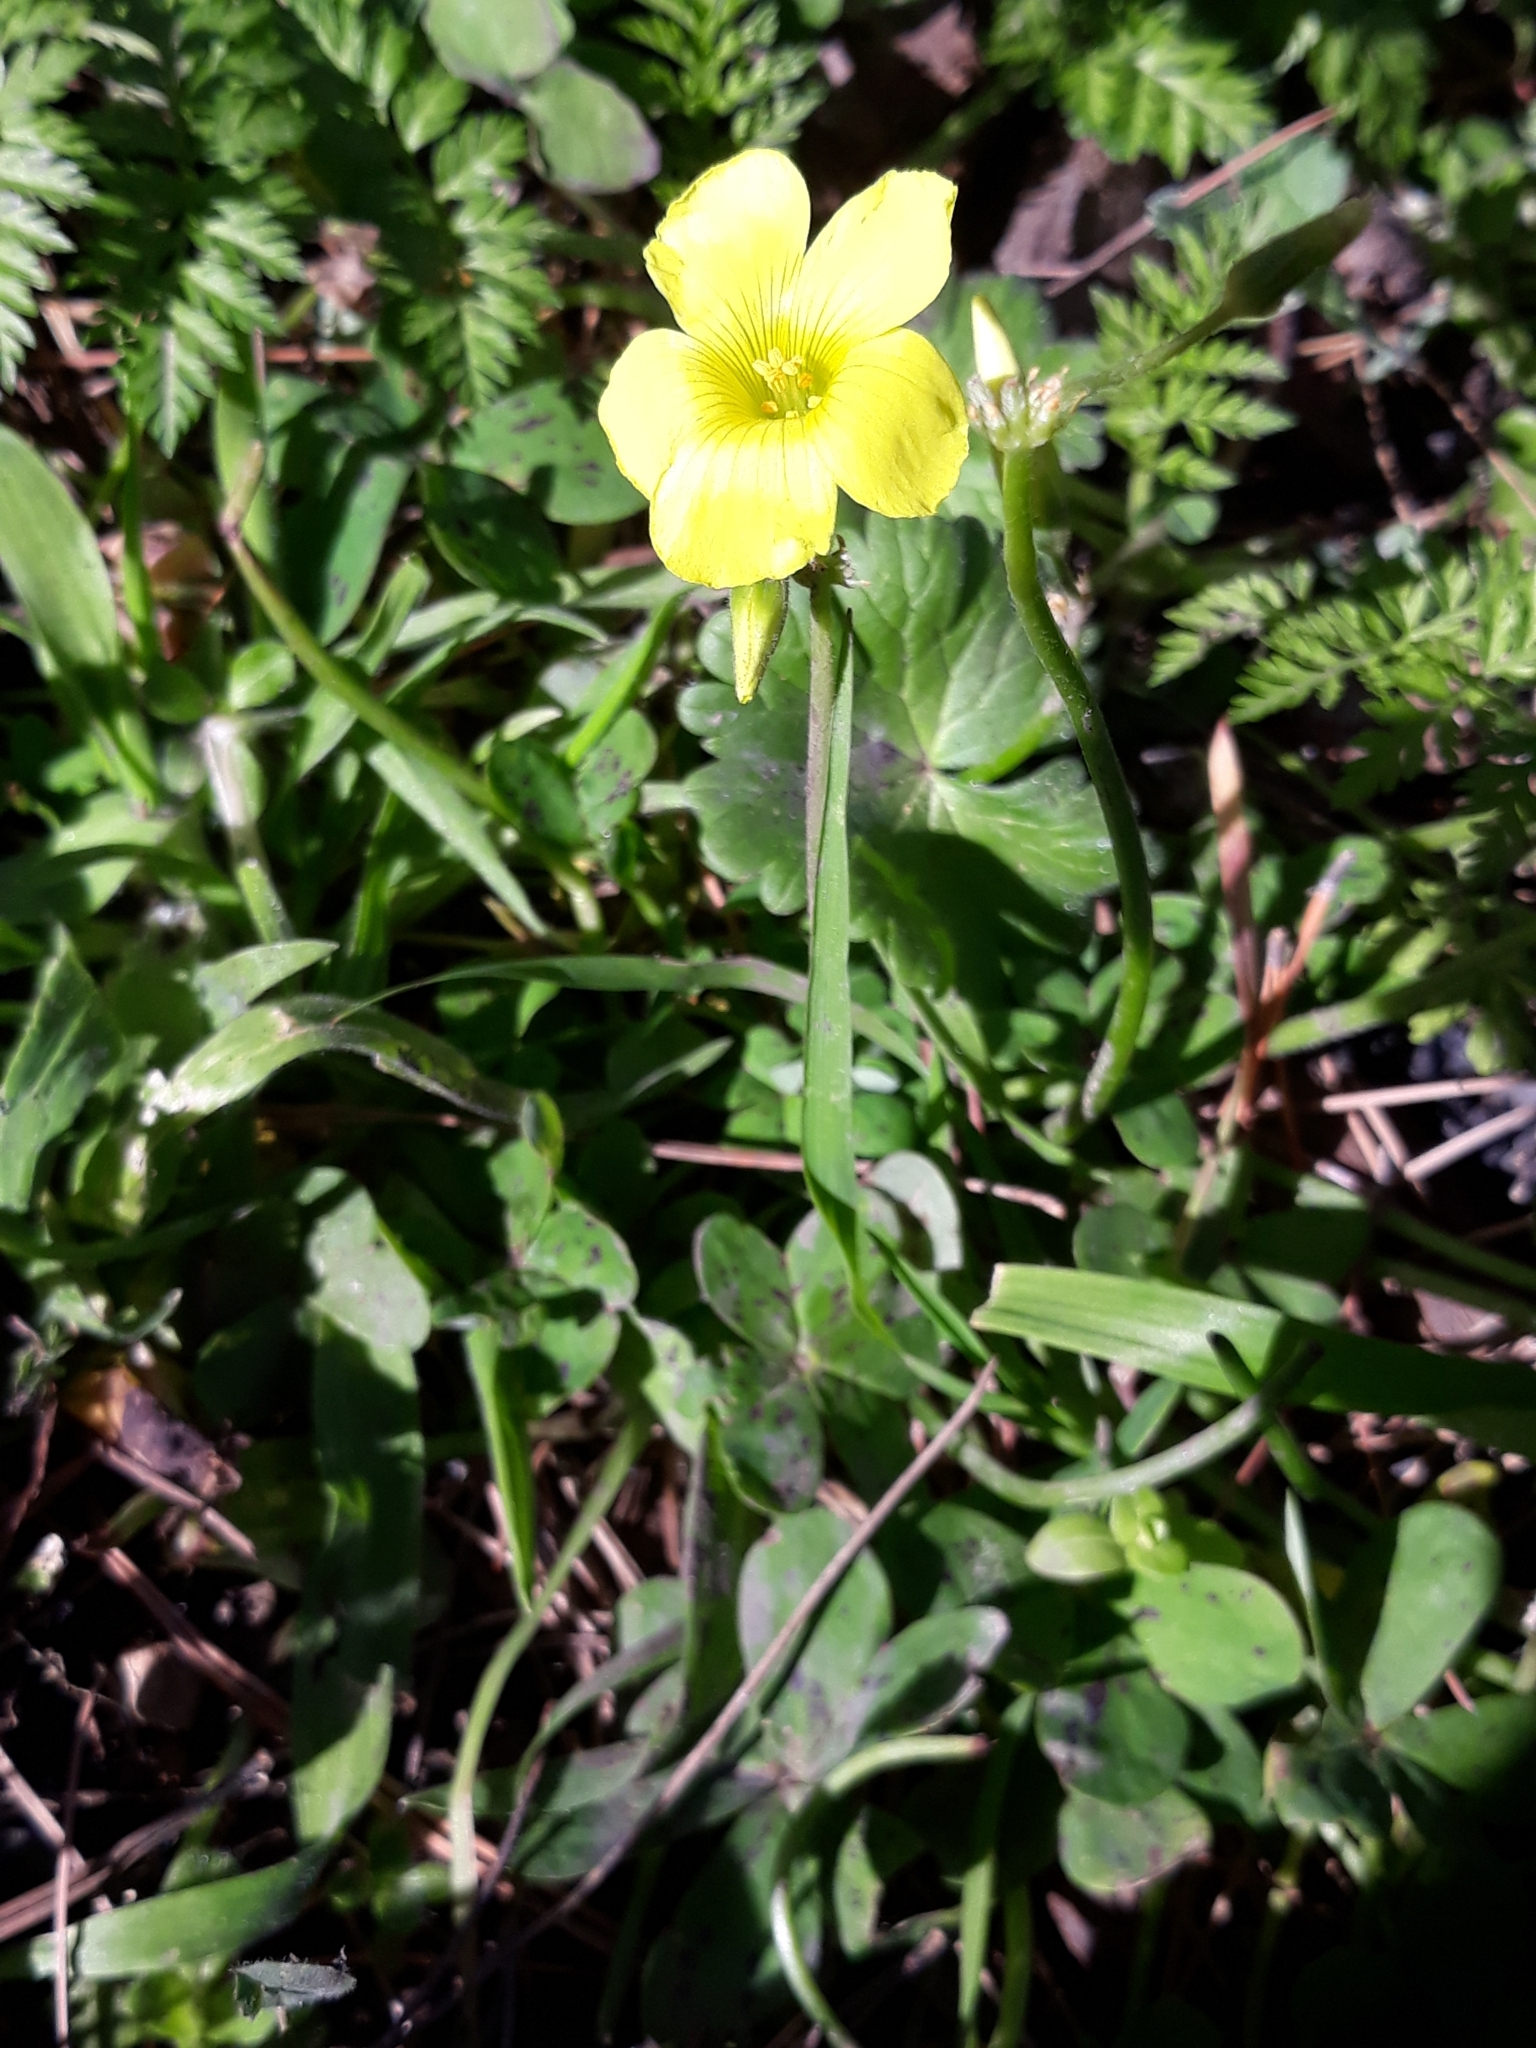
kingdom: Plantae
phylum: Tracheophyta
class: Magnoliopsida
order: Oxalidales
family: Oxalidaceae
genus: Oxalis
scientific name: Oxalis pes-caprae
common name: Bermuda-buttercup
